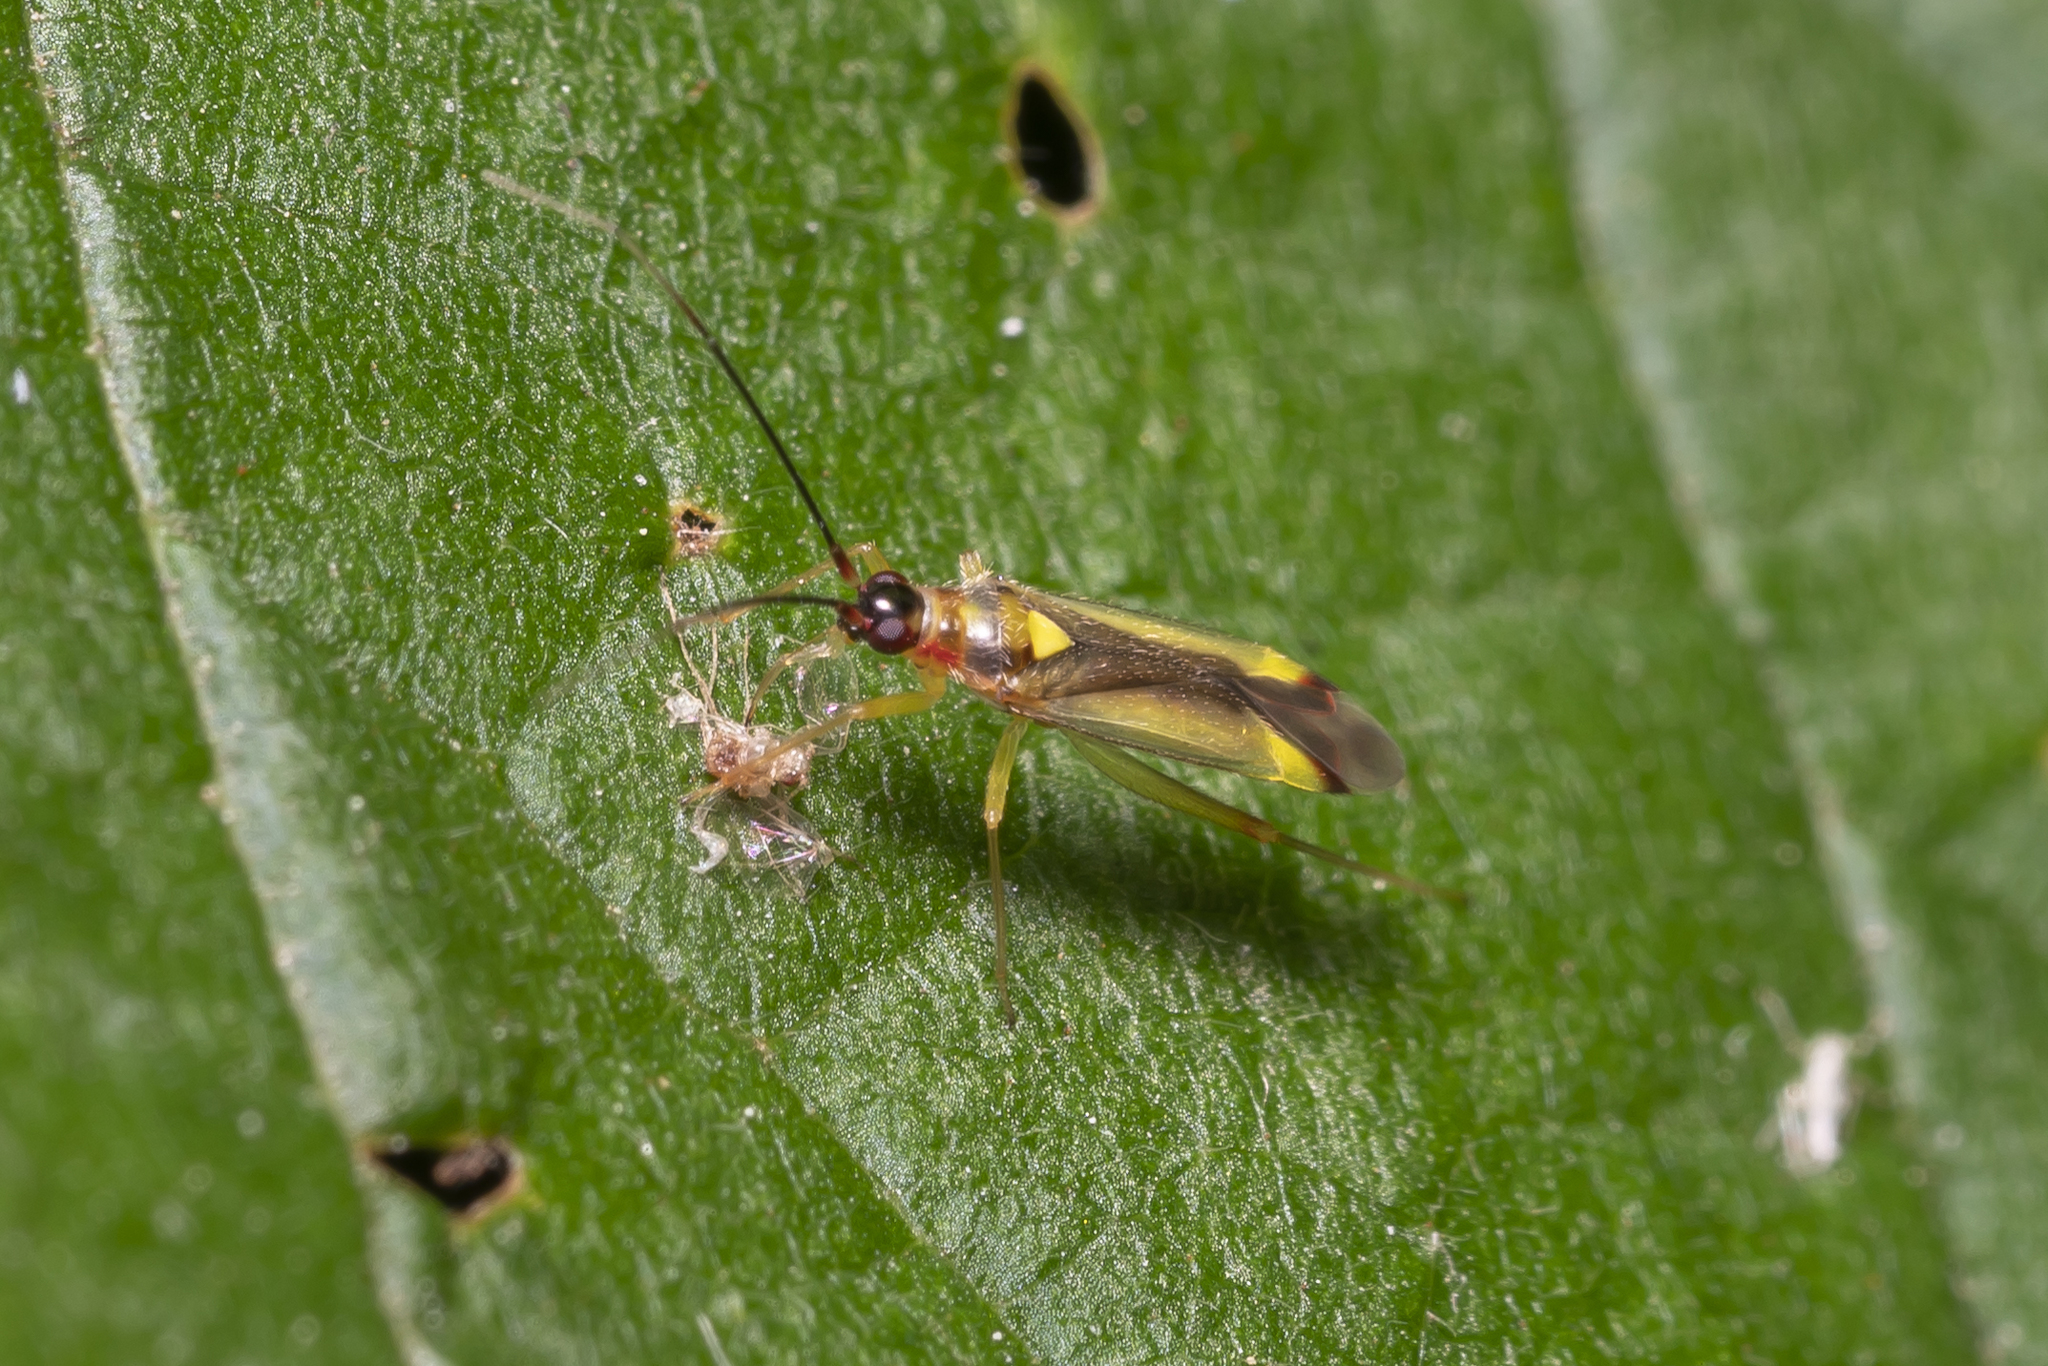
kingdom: Animalia
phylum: Arthropoda
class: Insecta
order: Hemiptera
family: Miridae
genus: Campyloneura
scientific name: Campyloneura virgula
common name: Predatory bug
